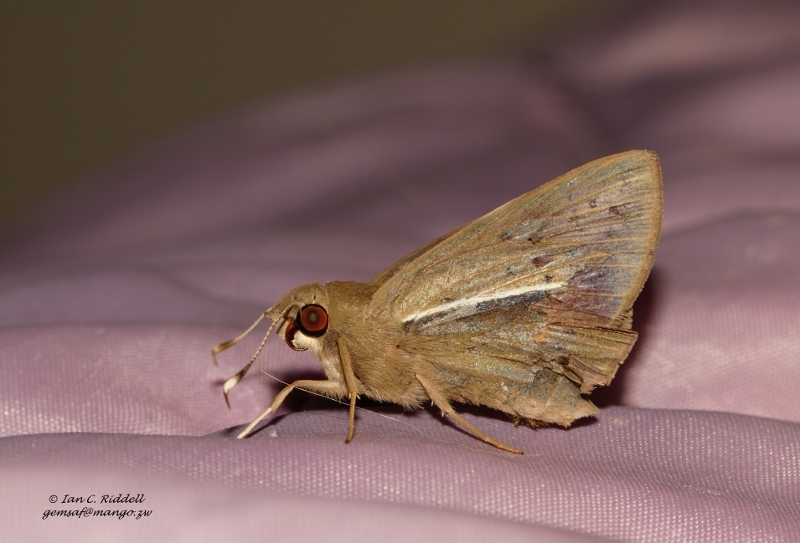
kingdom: Animalia
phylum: Arthropoda
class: Insecta
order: Lepidoptera
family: Hesperiidae
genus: Zophopetes
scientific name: Zophopetes dysmephila
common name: Palm-tree nightfighter
